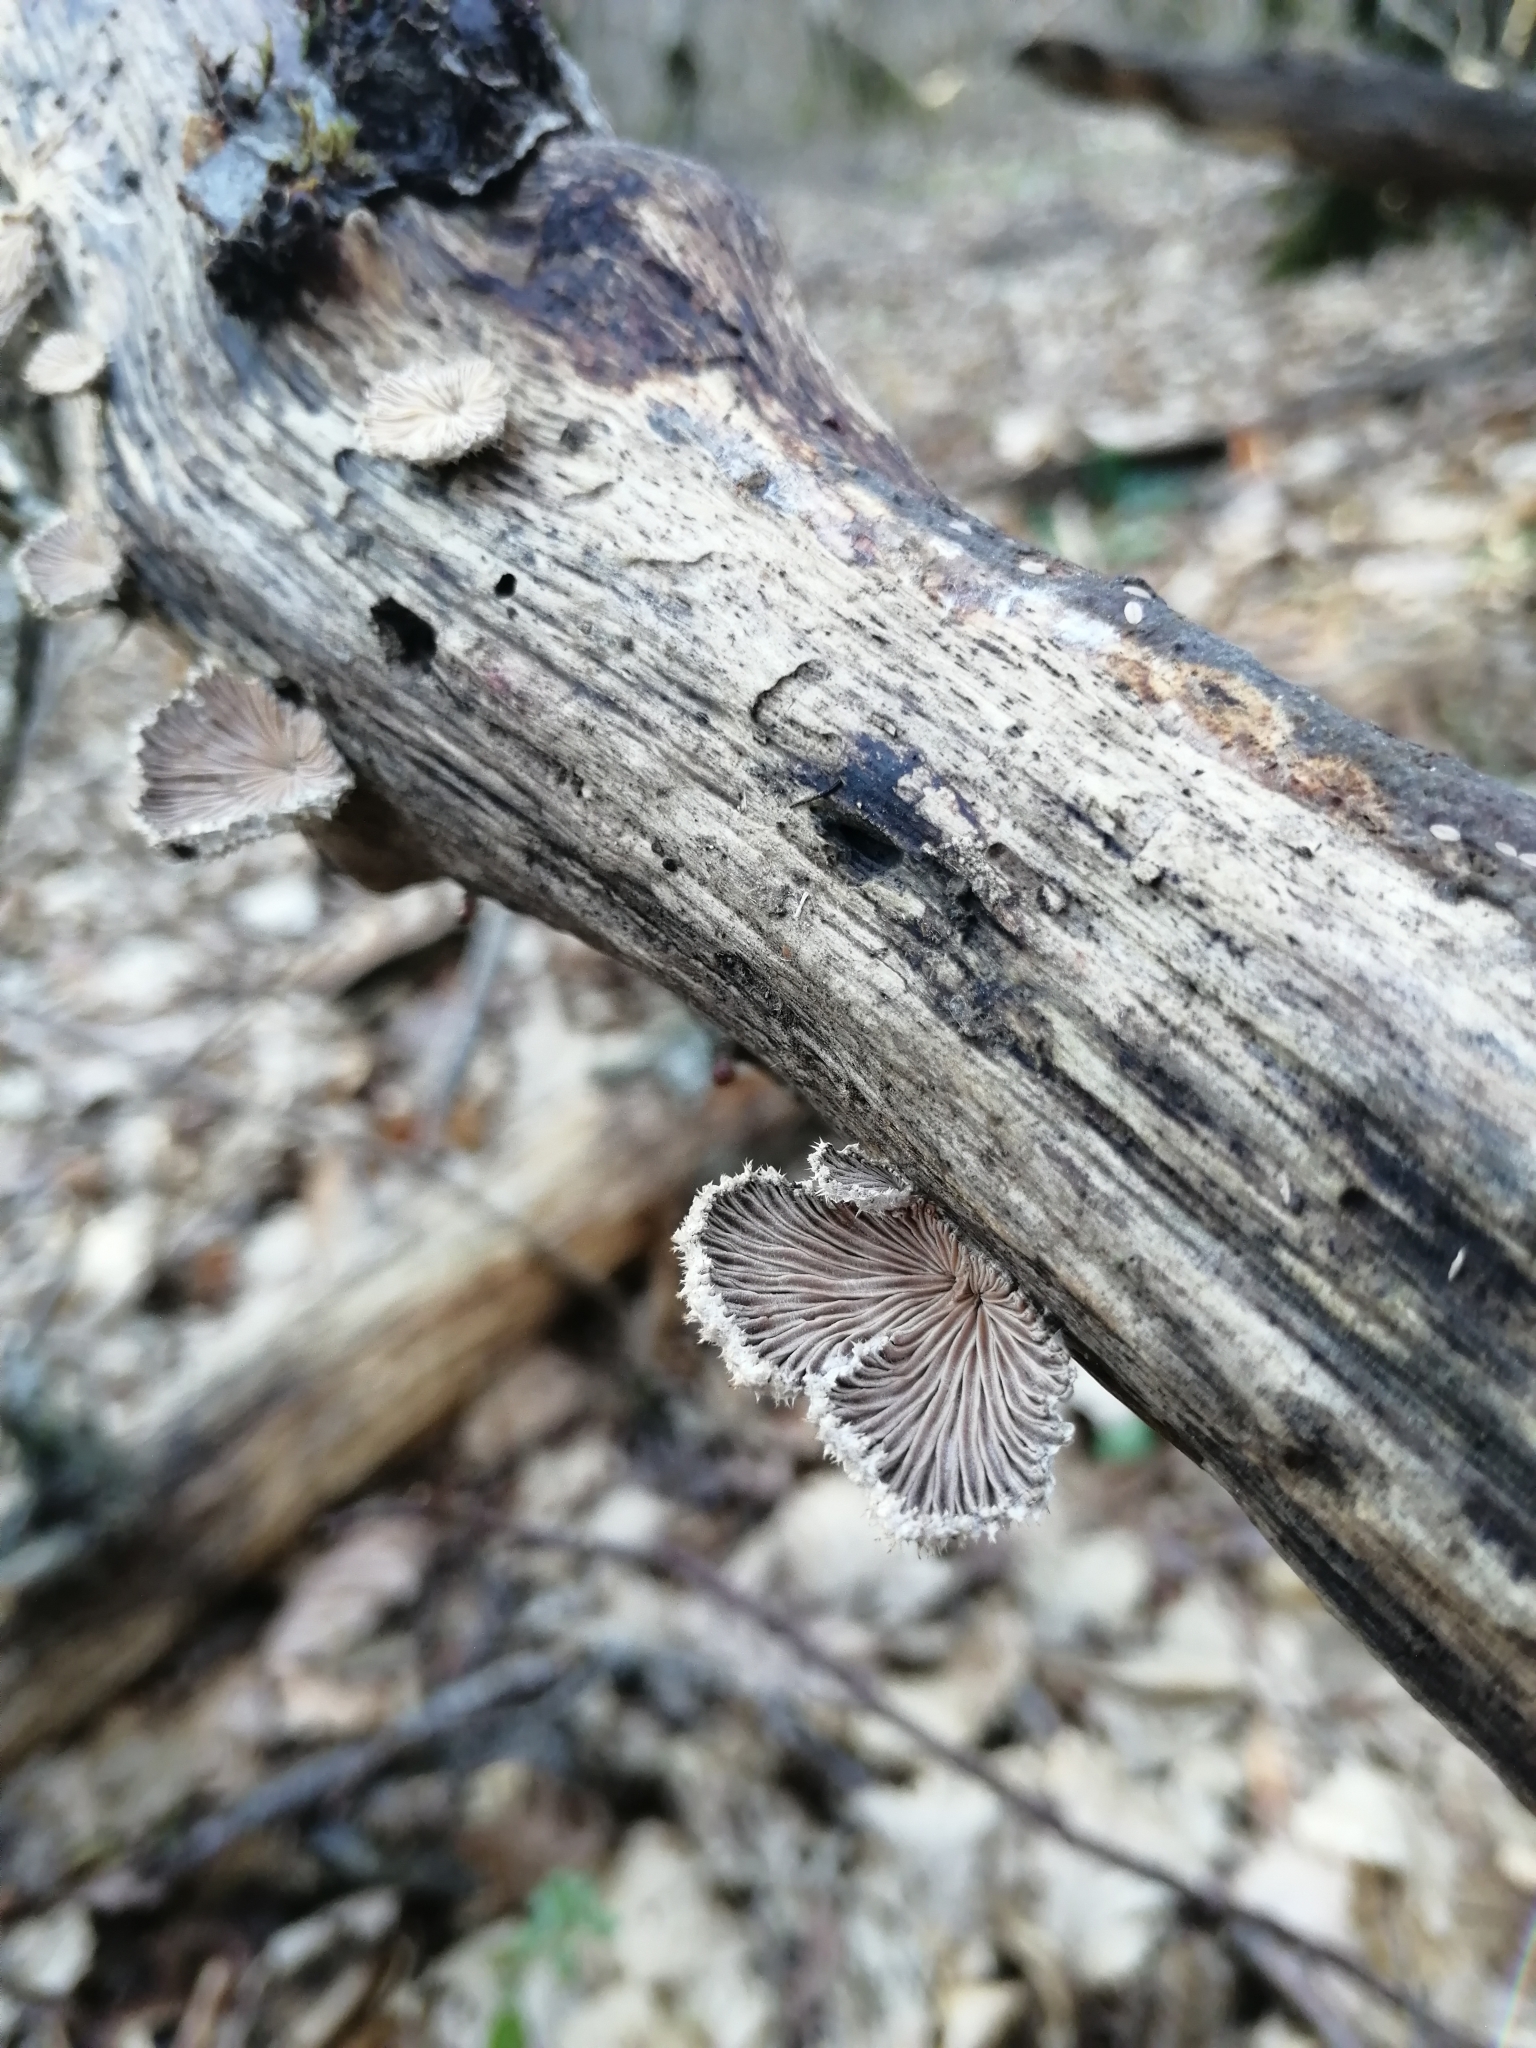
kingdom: Fungi
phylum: Basidiomycota
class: Agaricomycetes
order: Agaricales
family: Schizophyllaceae
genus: Schizophyllum
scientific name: Schizophyllum commune
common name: Common porecrust
